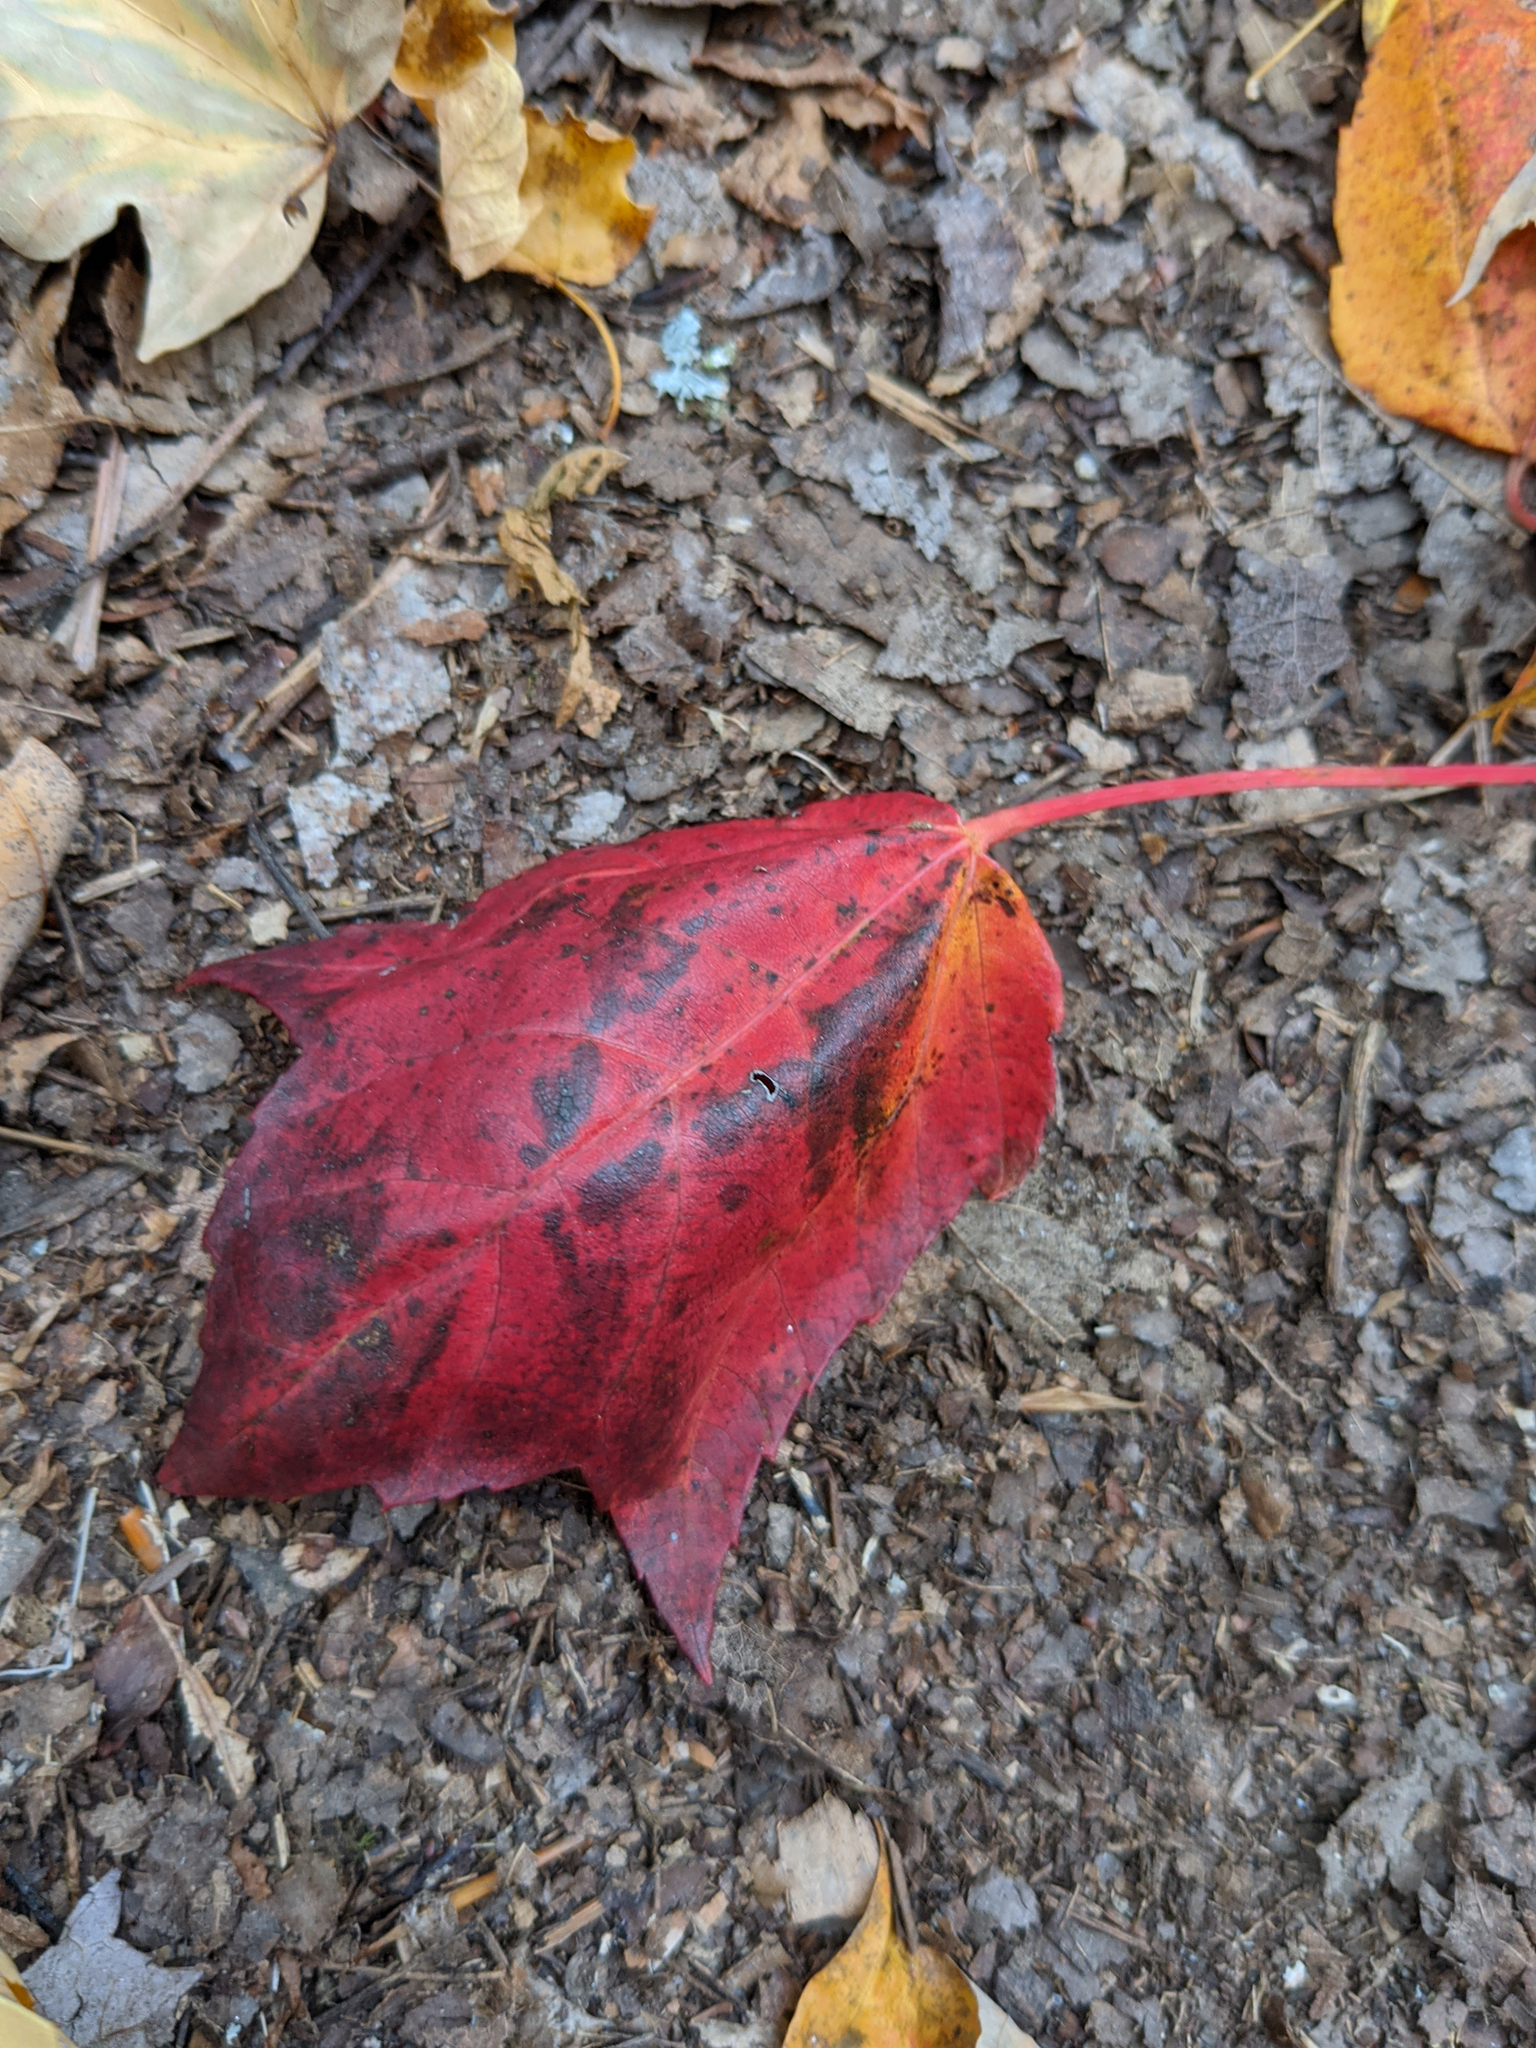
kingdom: Plantae
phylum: Tracheophyta
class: Magnoliopsida
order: Sapindales
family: Sapindaceae
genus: Acer
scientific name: Acer rubrum
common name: Red maple
